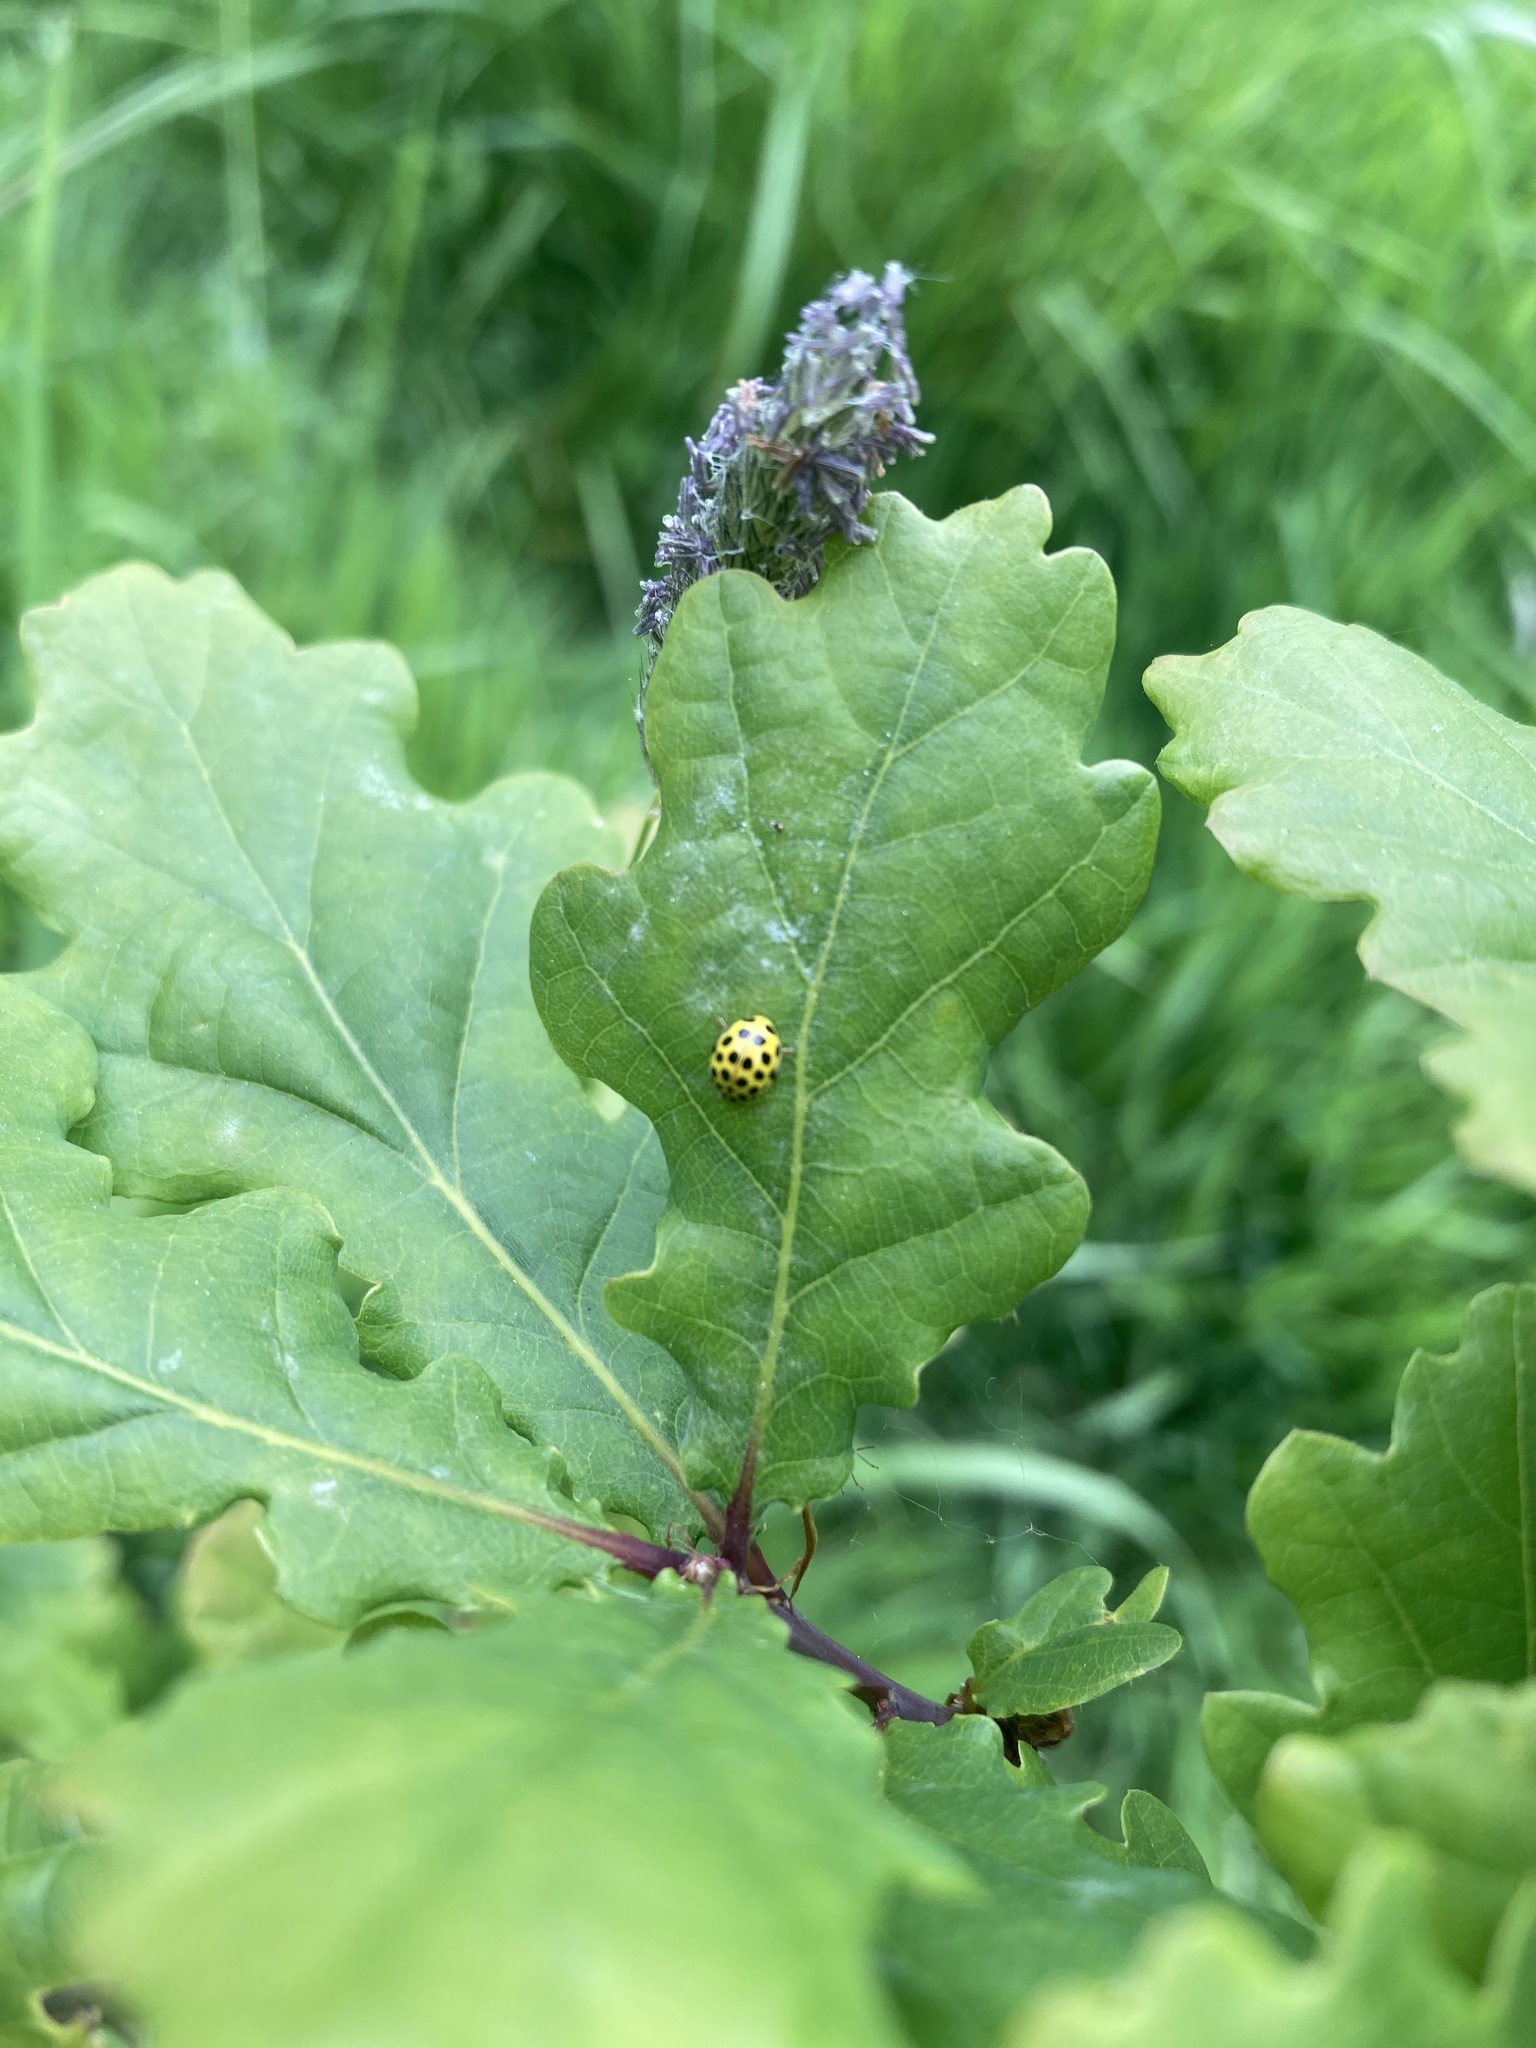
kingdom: Animalia
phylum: Arthropoda
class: Insecta
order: Coleoptera
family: Coccinellidae
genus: Psyllobora
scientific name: Psyllobora vigintiduopunctata
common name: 22-spot ladybird
